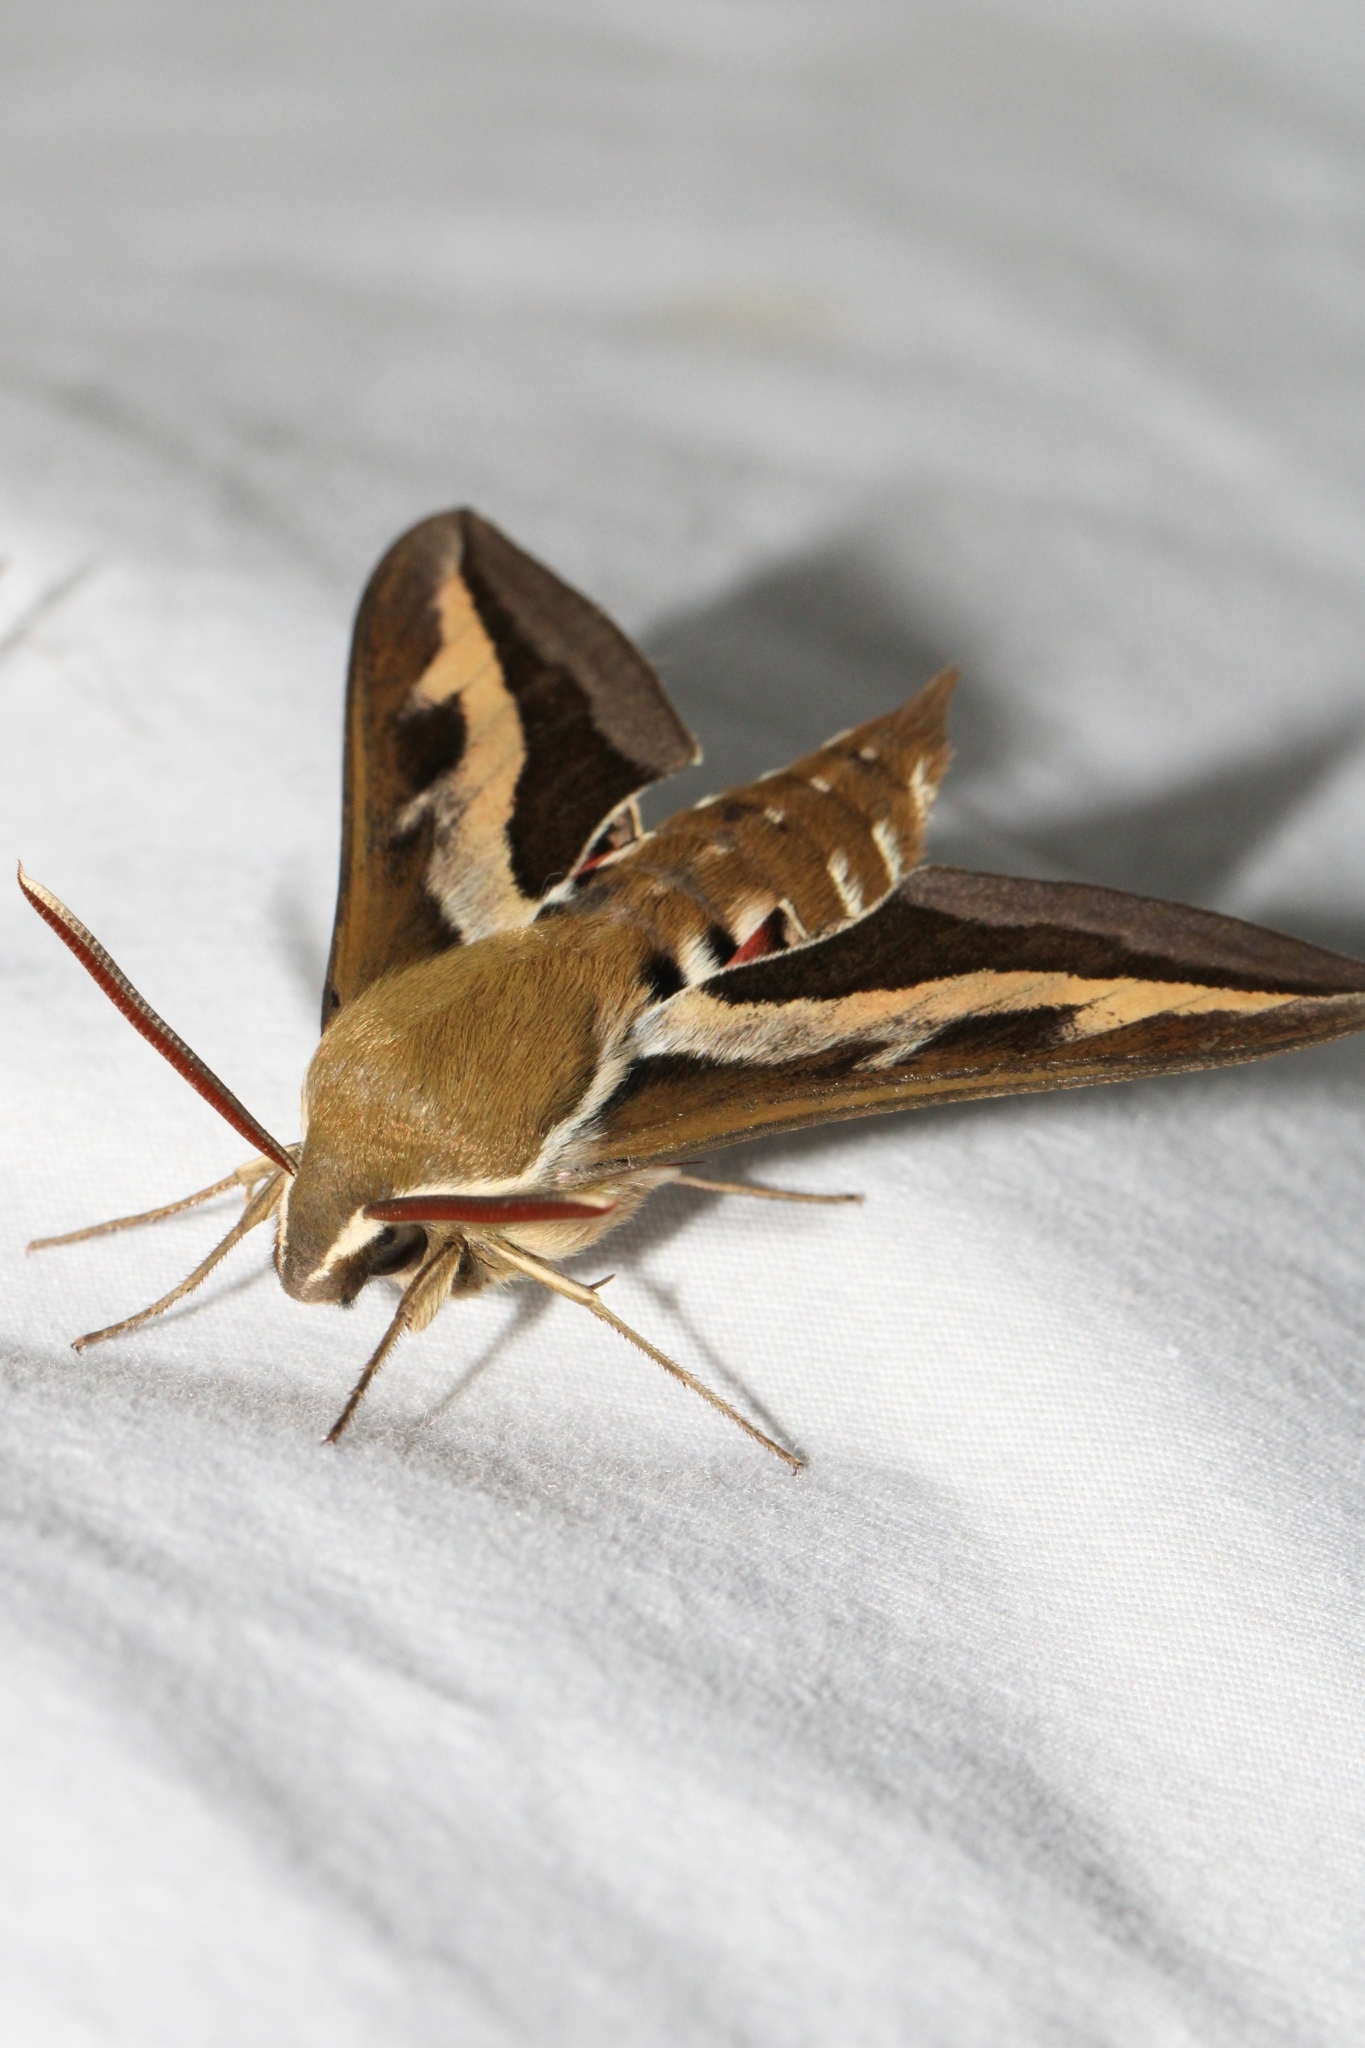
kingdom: Animalia
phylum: Arthropoda
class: Insecta
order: Lepidoptera
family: Sphingidae
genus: Hyles
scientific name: Hyles gallii
